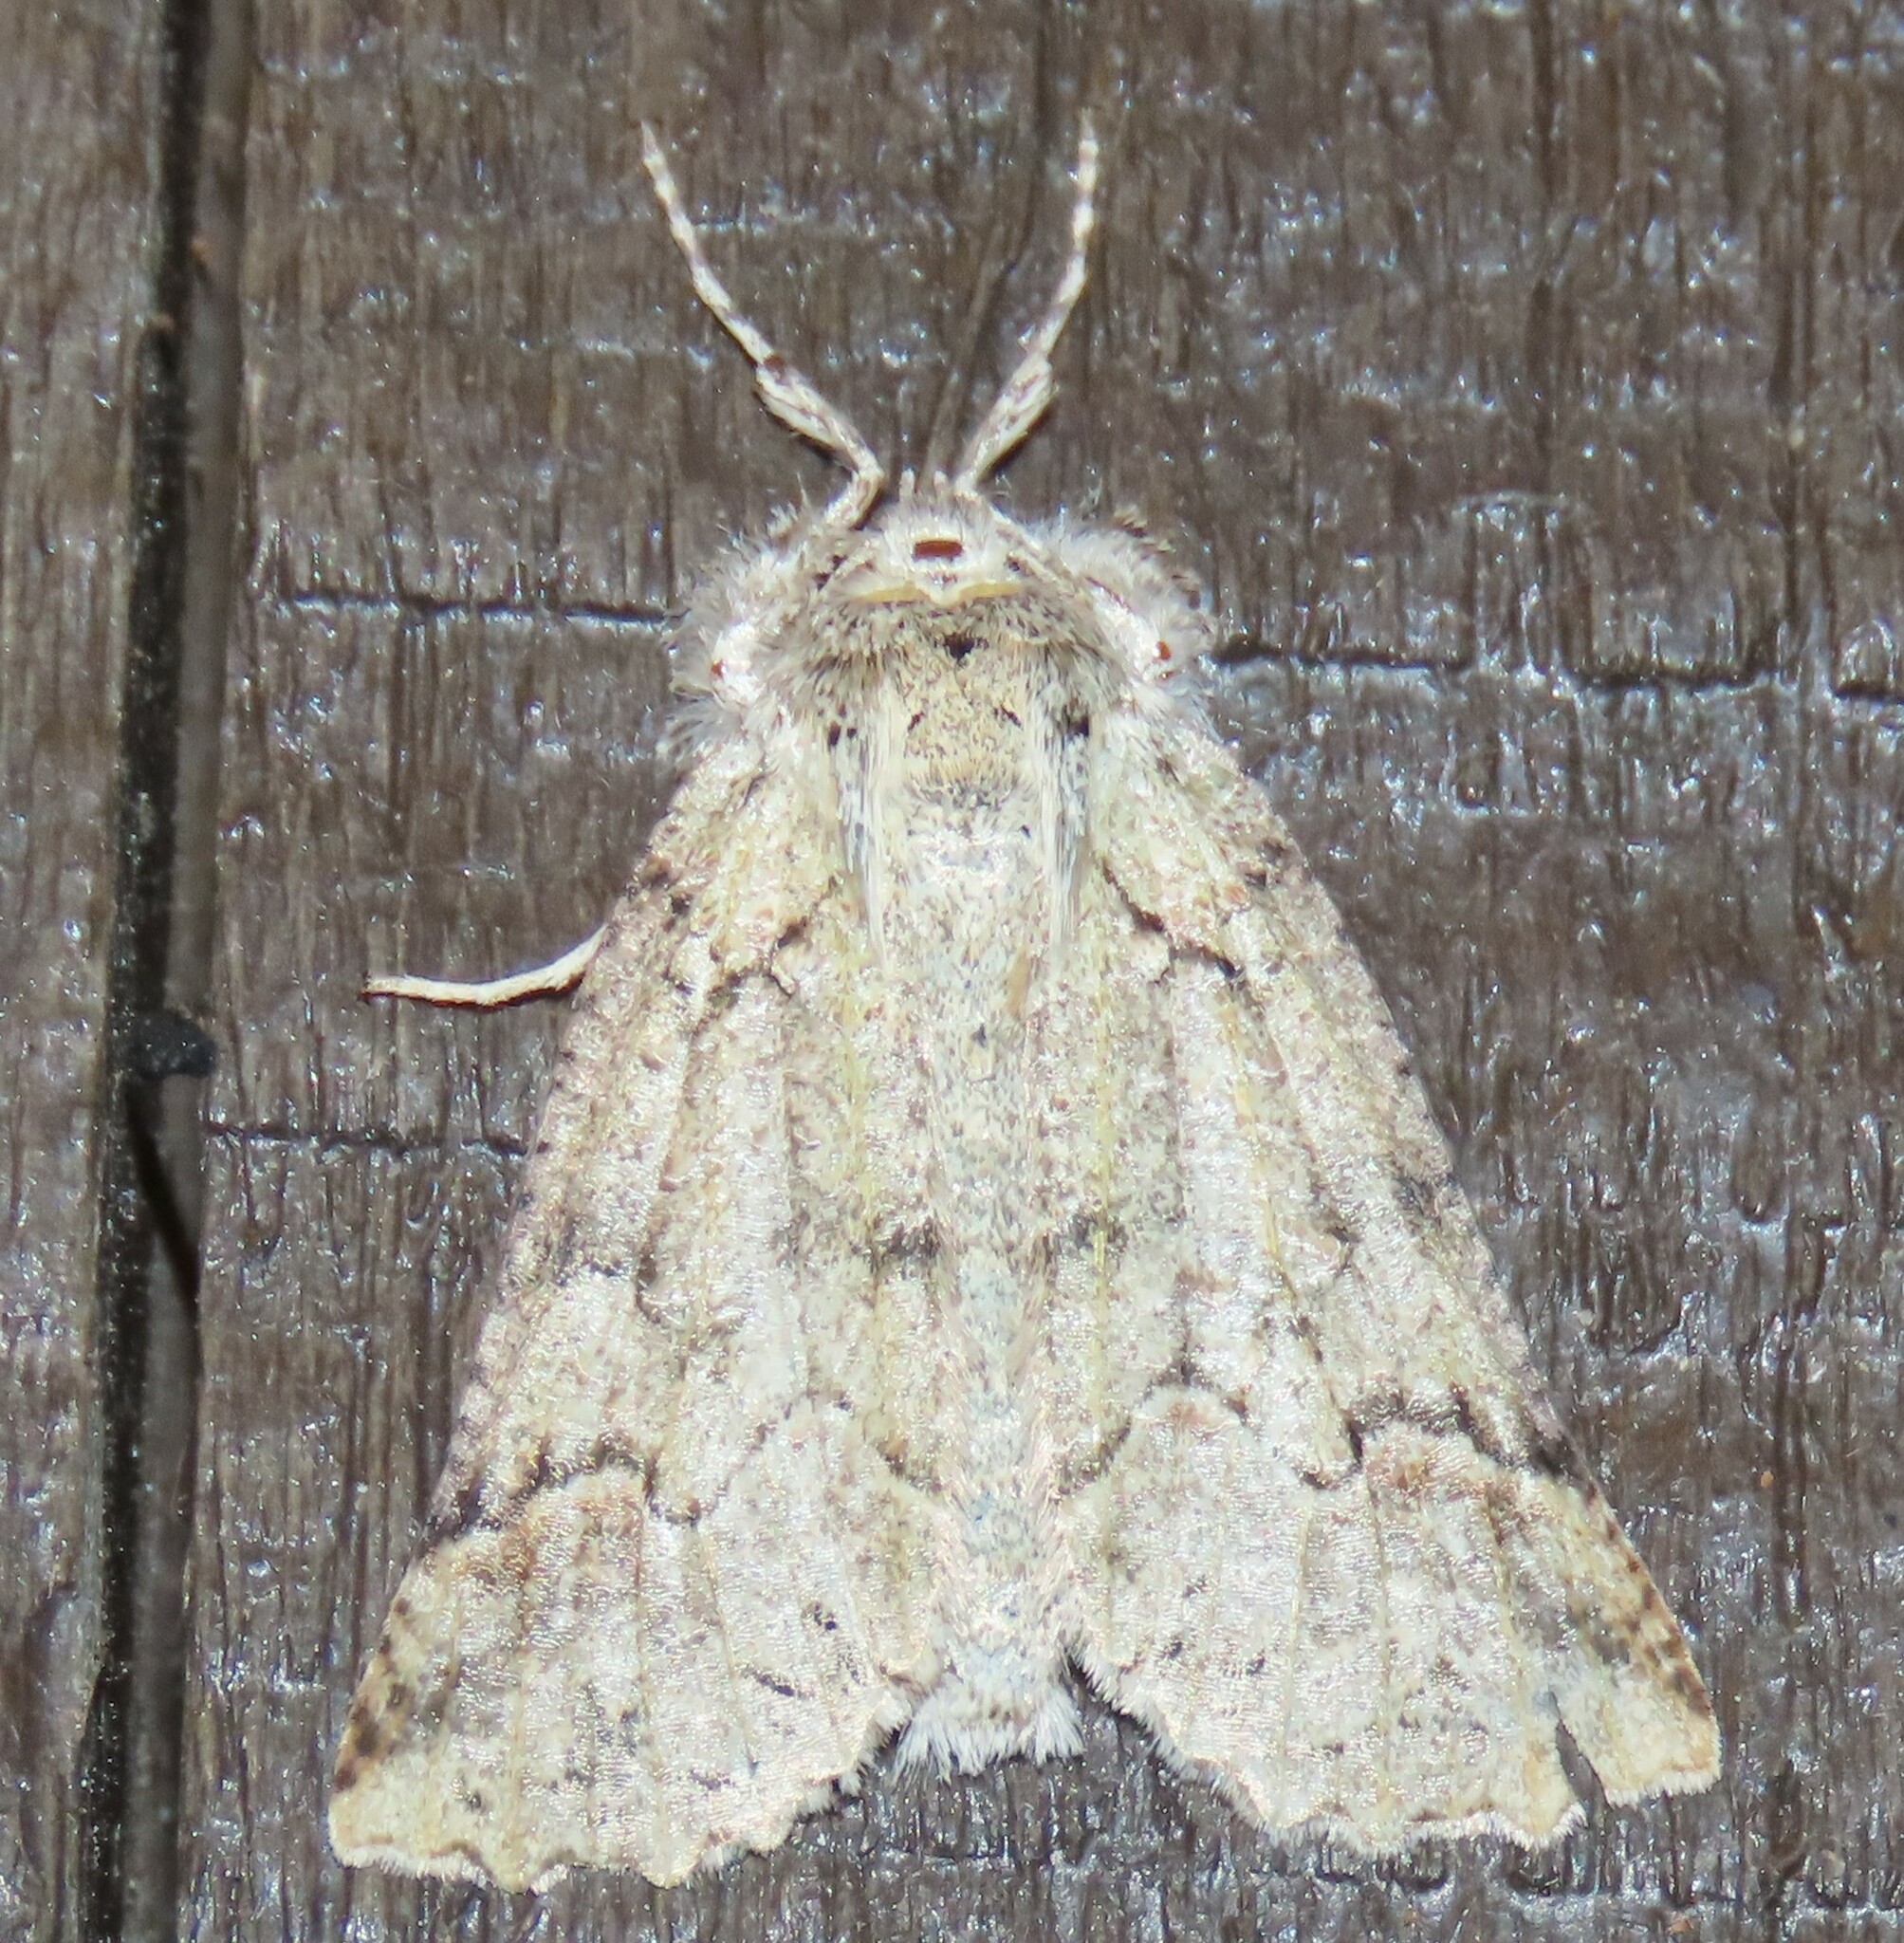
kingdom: Animalia
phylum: Arthropoda
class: Insecta
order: Lepidoptera
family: Geometridae
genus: Declana
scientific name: Declana floccosa
